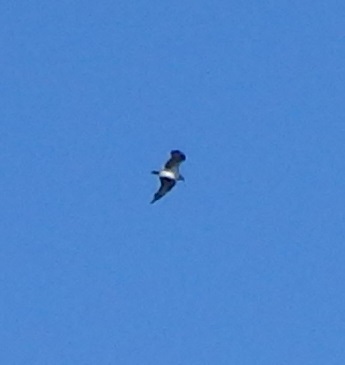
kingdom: Animalia
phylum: Chordata
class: Aves
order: Accipitriformes
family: Pandionidae
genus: Pandion
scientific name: Pandion haliaetus
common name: Osprey
